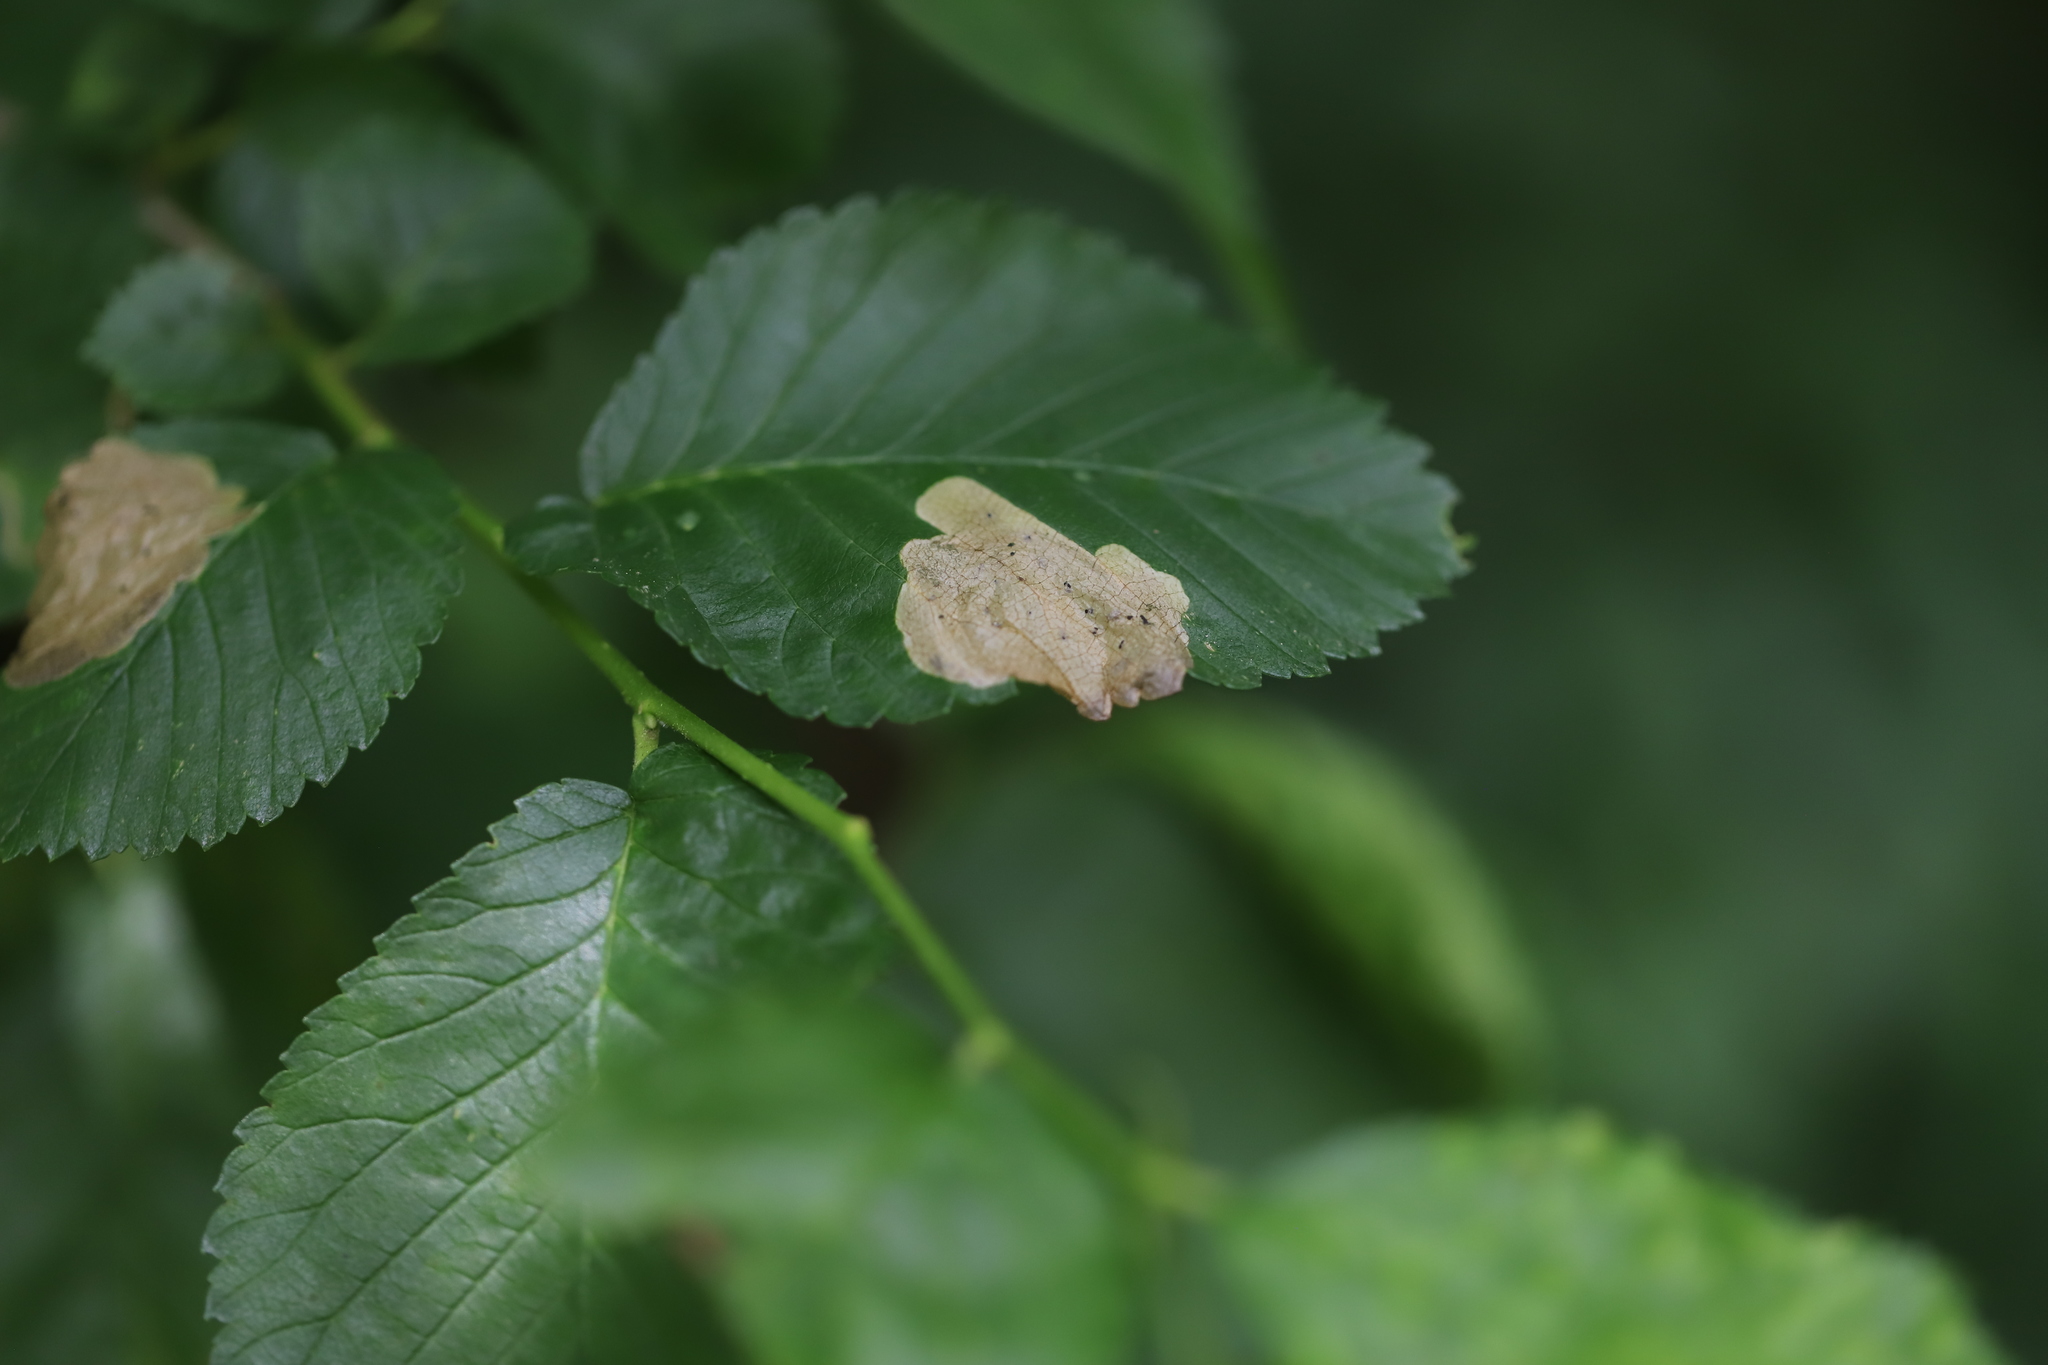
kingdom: Animalia
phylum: Arthropoda
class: Insecta
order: Hymenoptera
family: Tenthredinidae
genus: Fenusa
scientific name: Fenusa ulmi
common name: Elm leafminer
